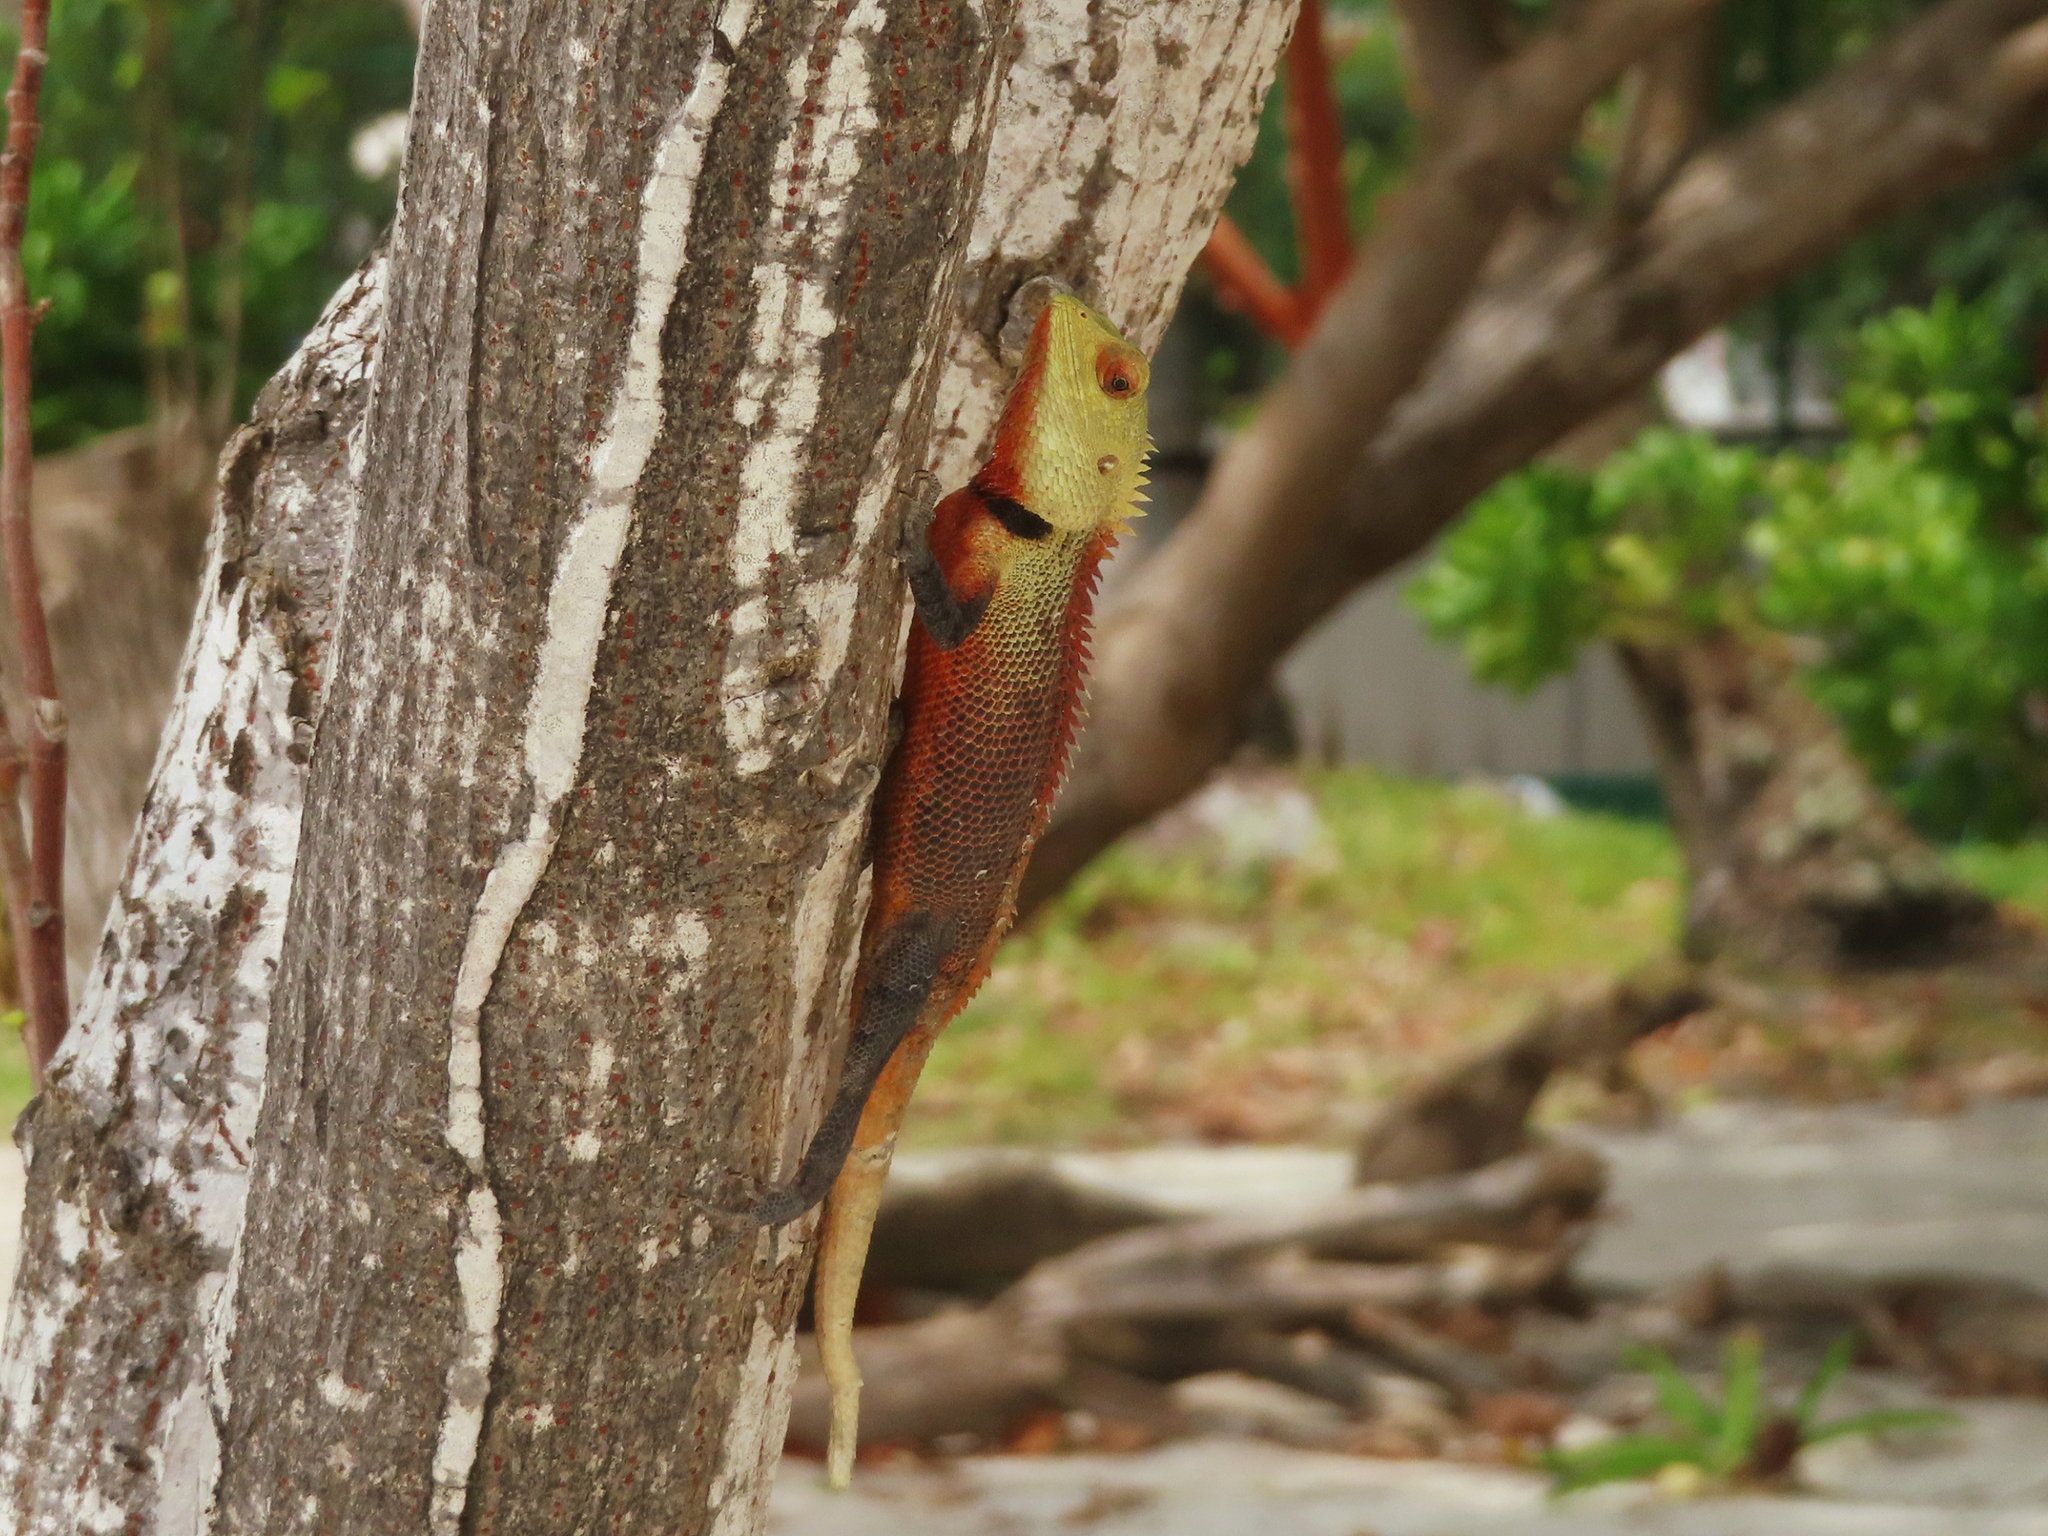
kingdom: Animalia
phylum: Chordata
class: Squamata
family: Agamidae
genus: Calotes
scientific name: Calotes versicolor
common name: Oriental garden lizard
